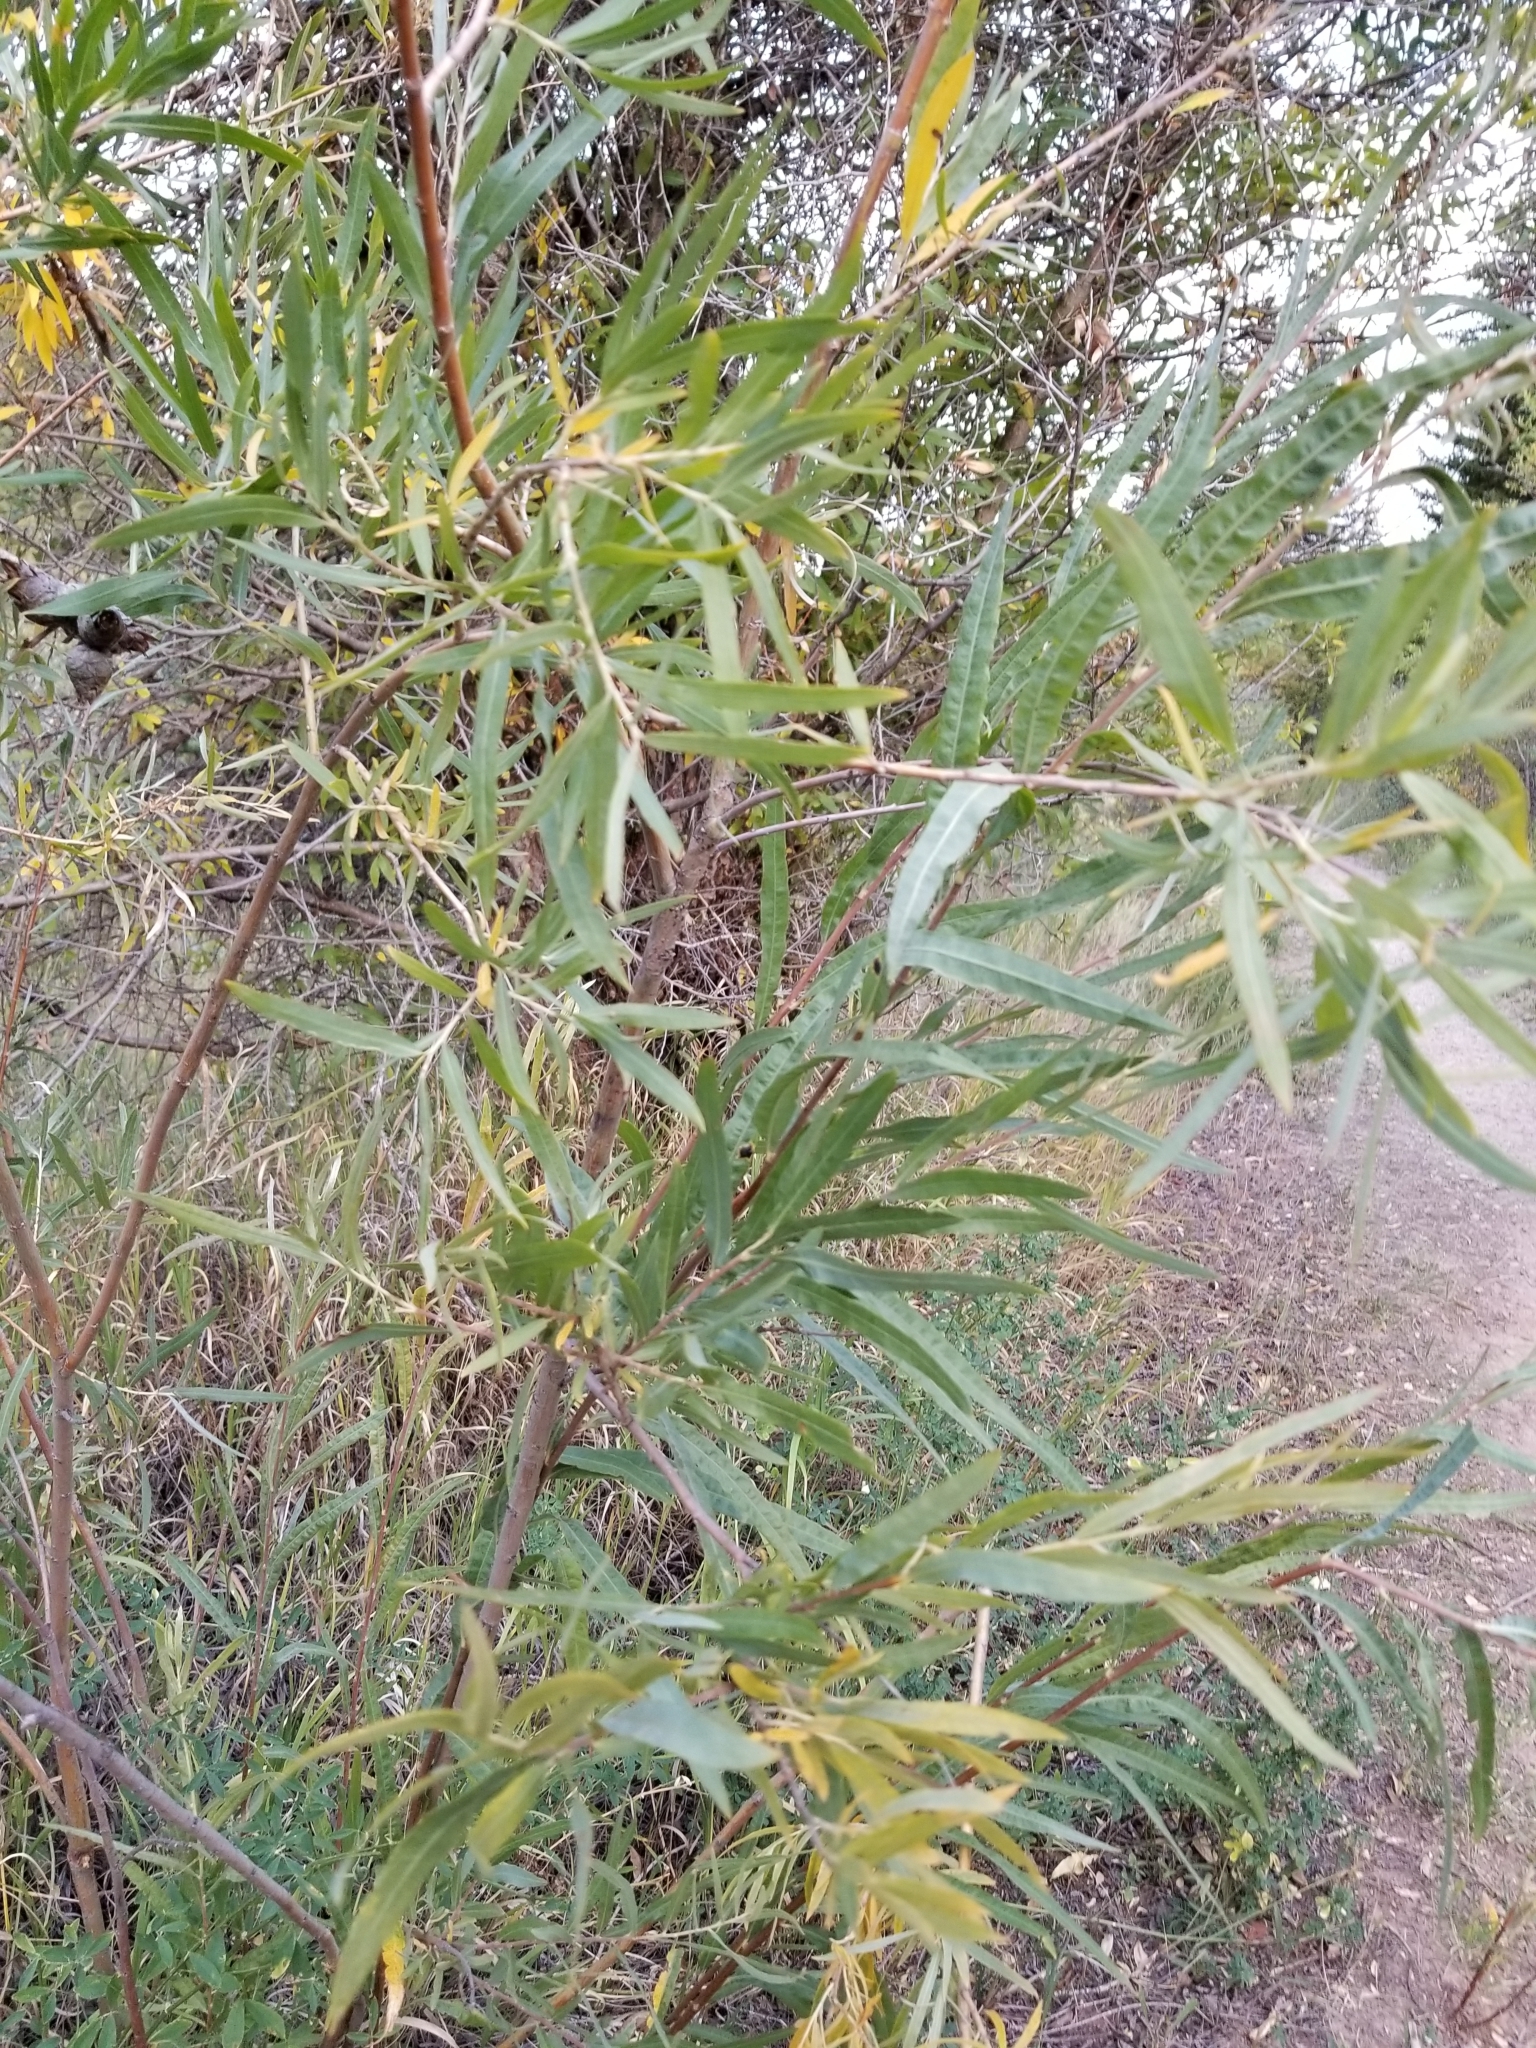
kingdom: Plantae
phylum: Tracheophyta
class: Magnoliopsida
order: Malpighiales
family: Salicaceae
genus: Salix
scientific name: Salix exigua
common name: Coyote willow
